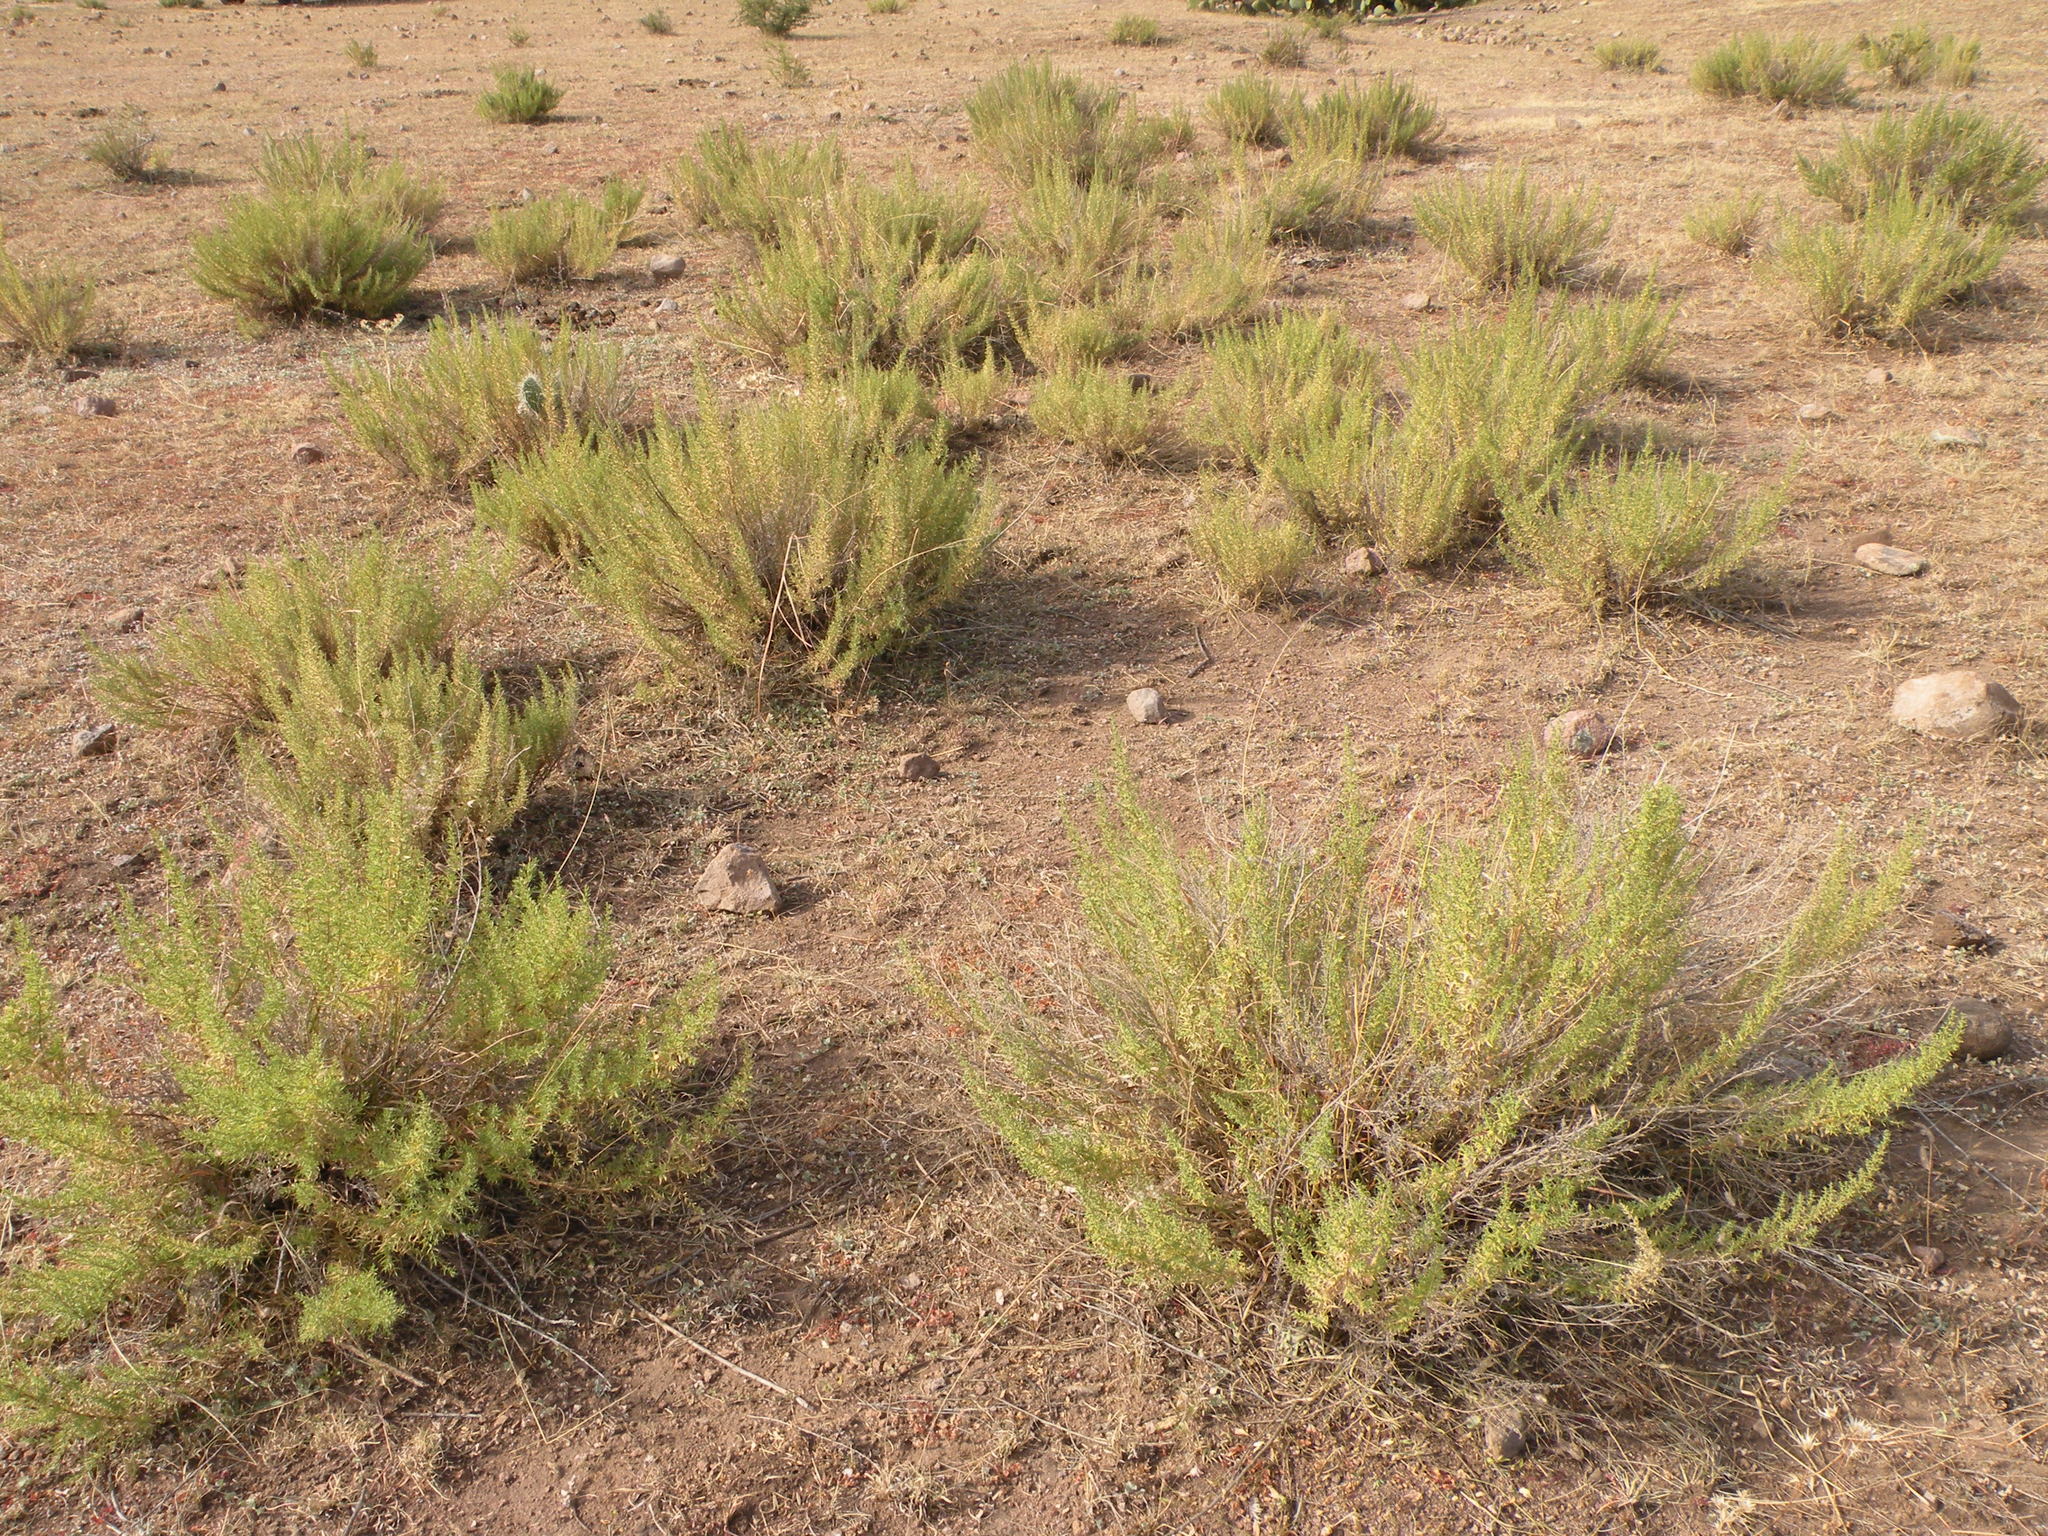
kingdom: Plantae
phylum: Tracheophyta
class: Magnoliopsida
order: Asterales
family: Asteraceae
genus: Brickellia
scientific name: Brickellia spinulosa
